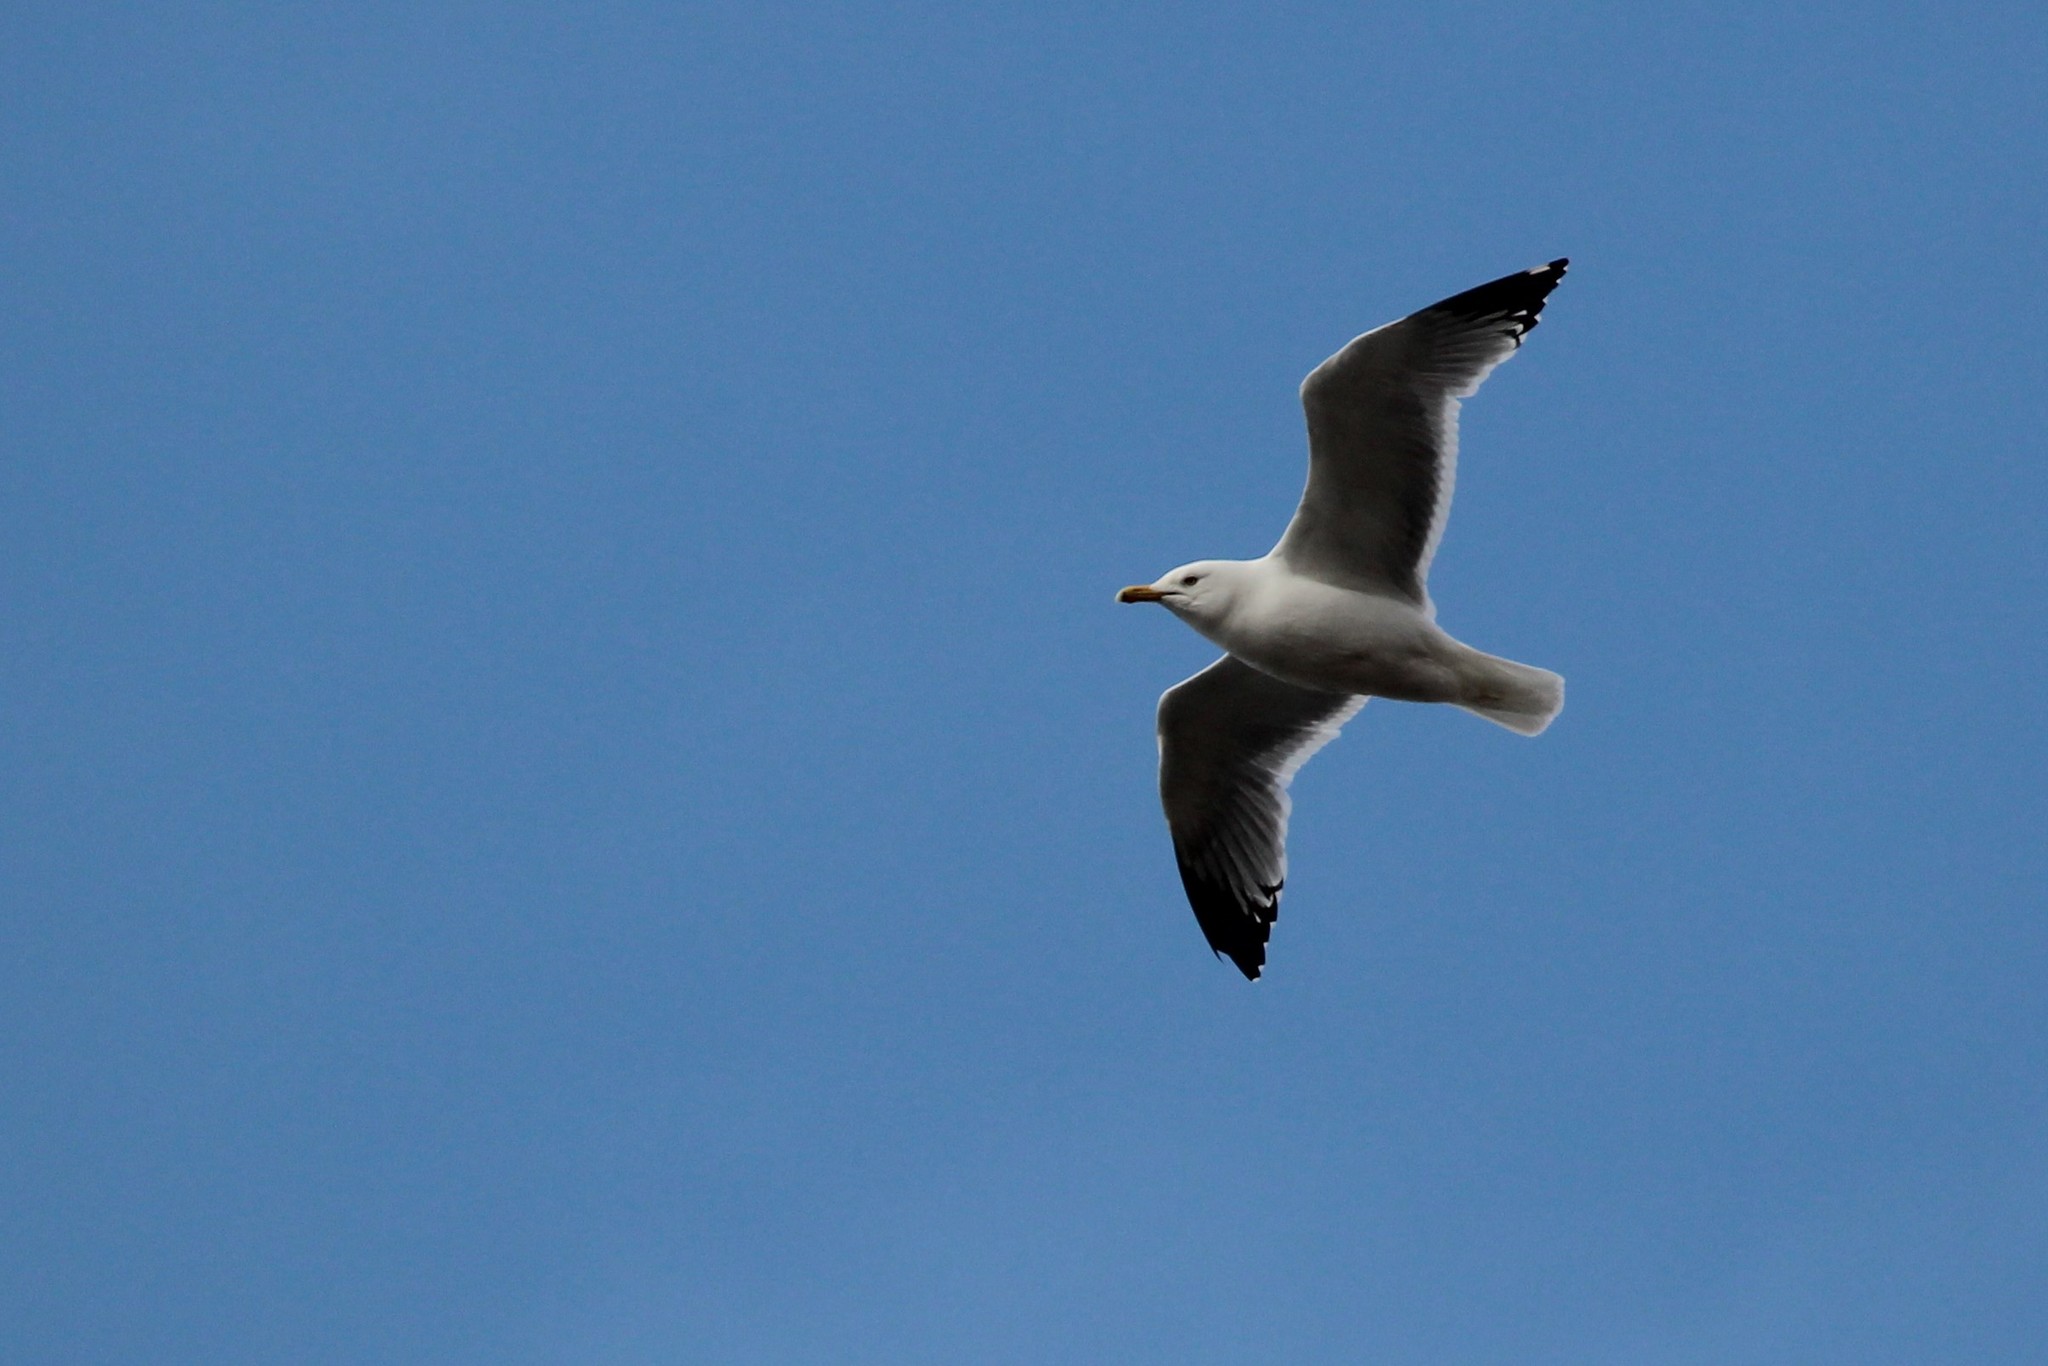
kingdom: Animalia
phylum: Chordata
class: Aves
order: Charadriiformes
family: Laridae
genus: Larus
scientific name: Larus argentatus
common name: Herring gull
